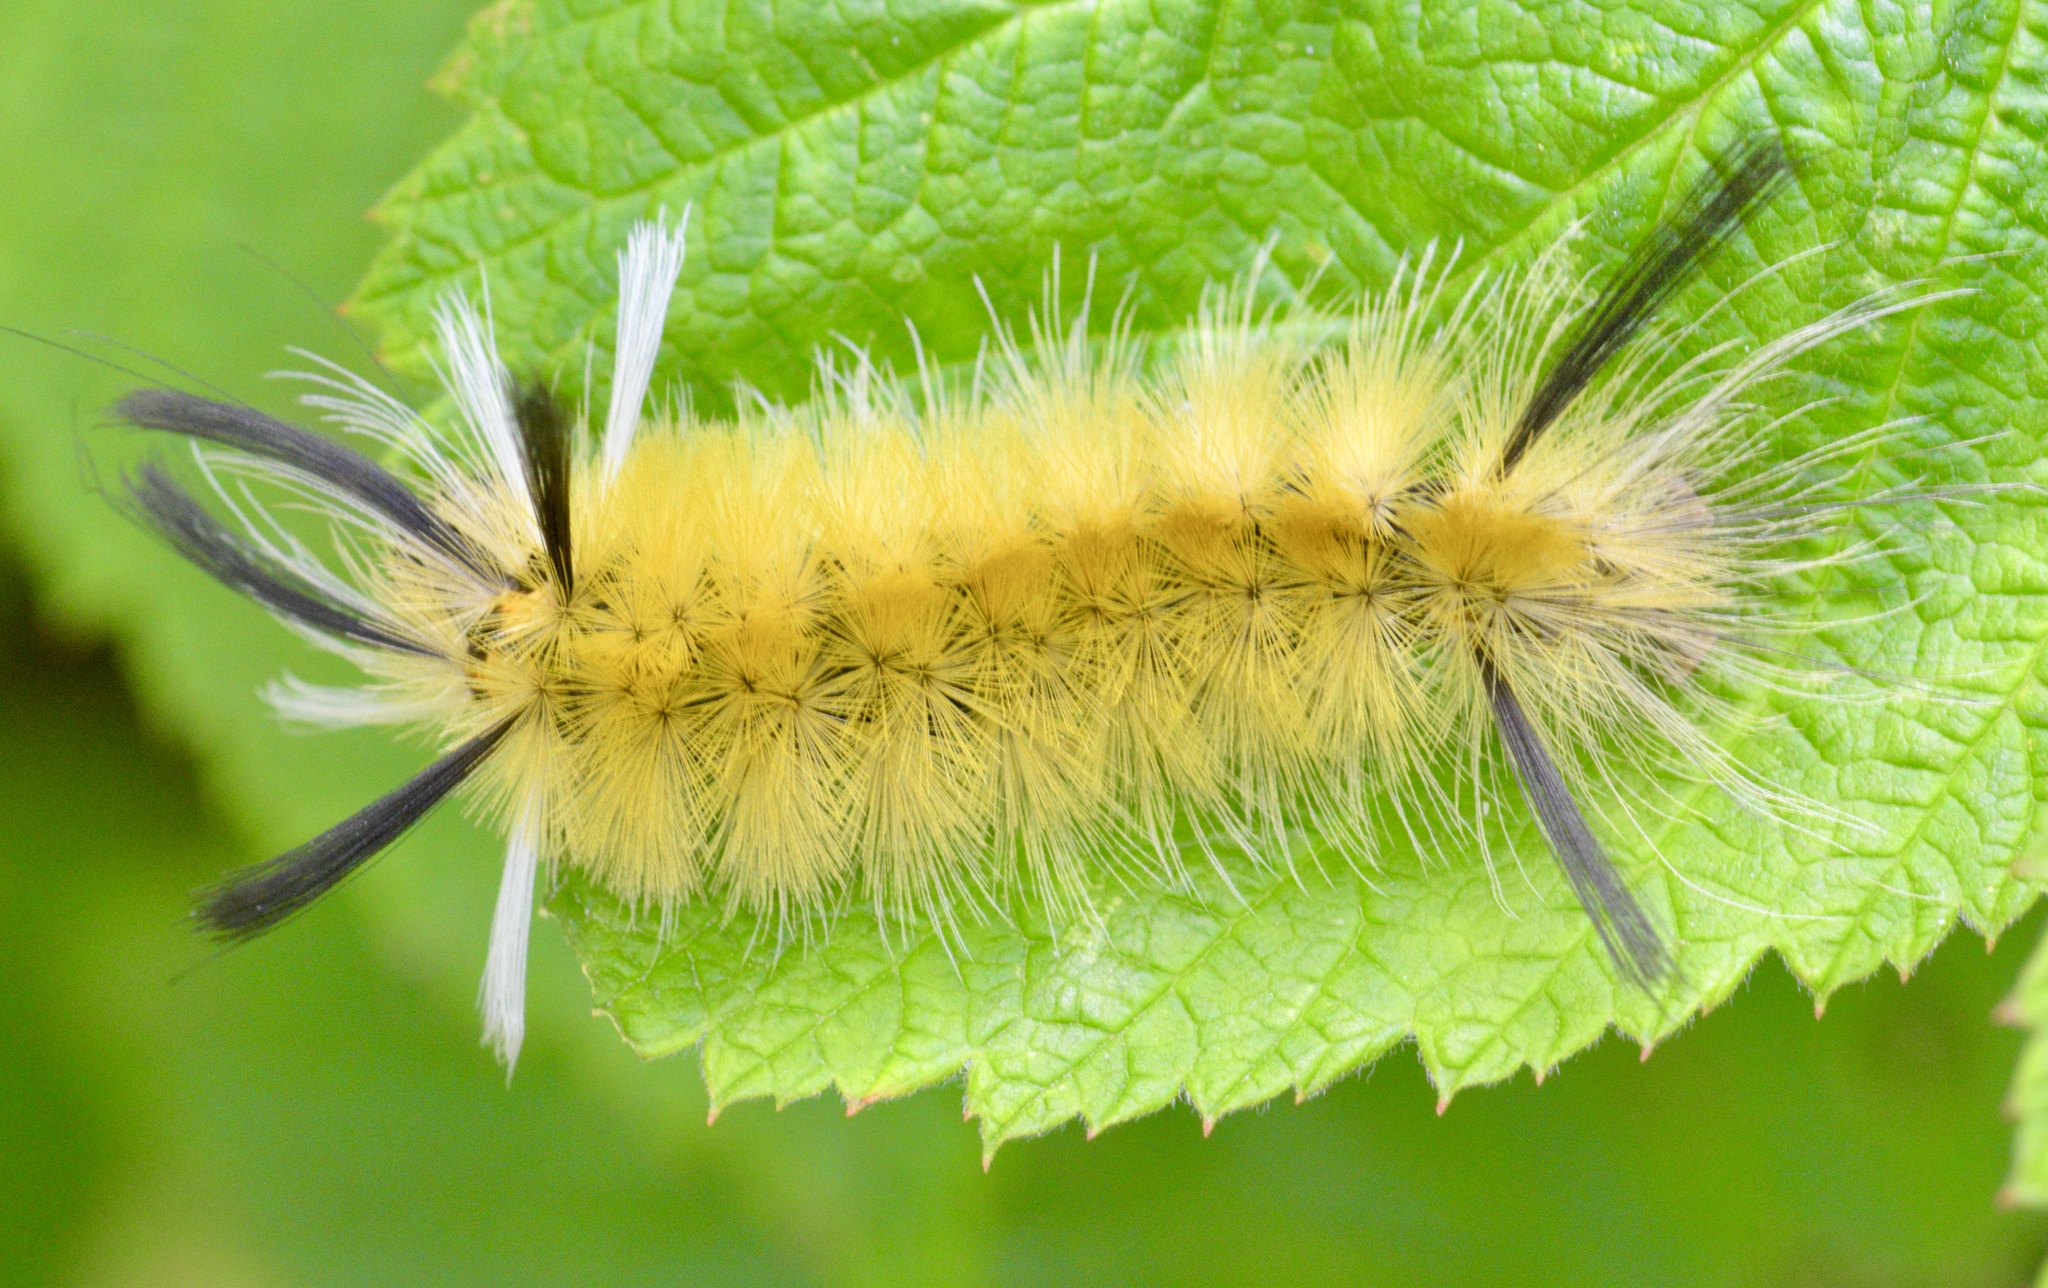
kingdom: Animalia
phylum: Arthropoda
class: Insecta
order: Lepidoptera
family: Erebidae
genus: Halysidota
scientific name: Halysidota tessellaris
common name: Banded tussock moth
